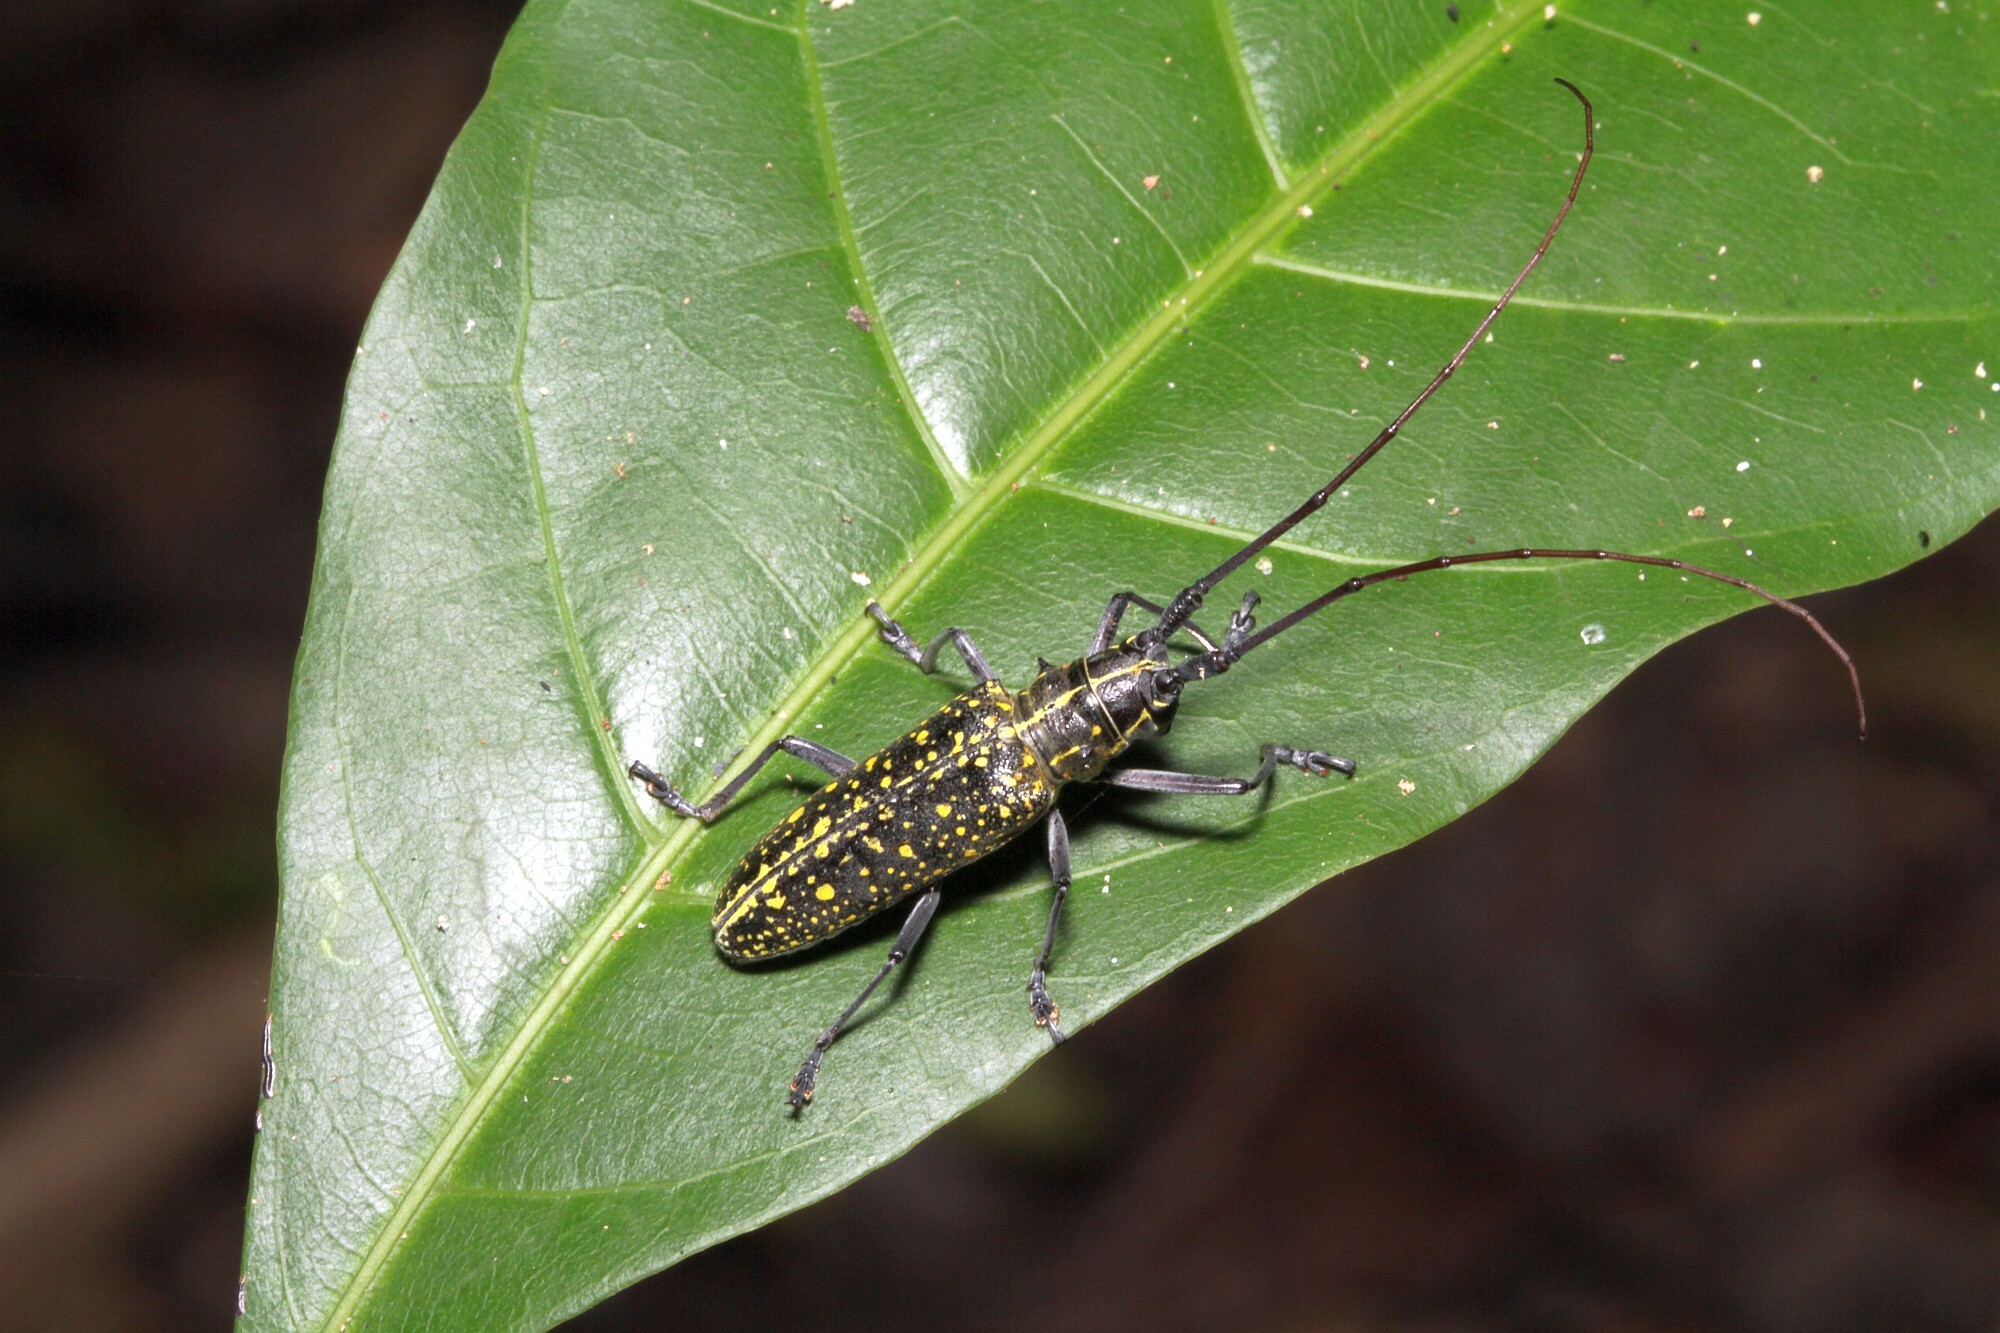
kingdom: Animalia
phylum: Arthropoda
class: Insecta
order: Coleoptera
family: Cerambycidae
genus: Taeniotes
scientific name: Taeniotes naevius
